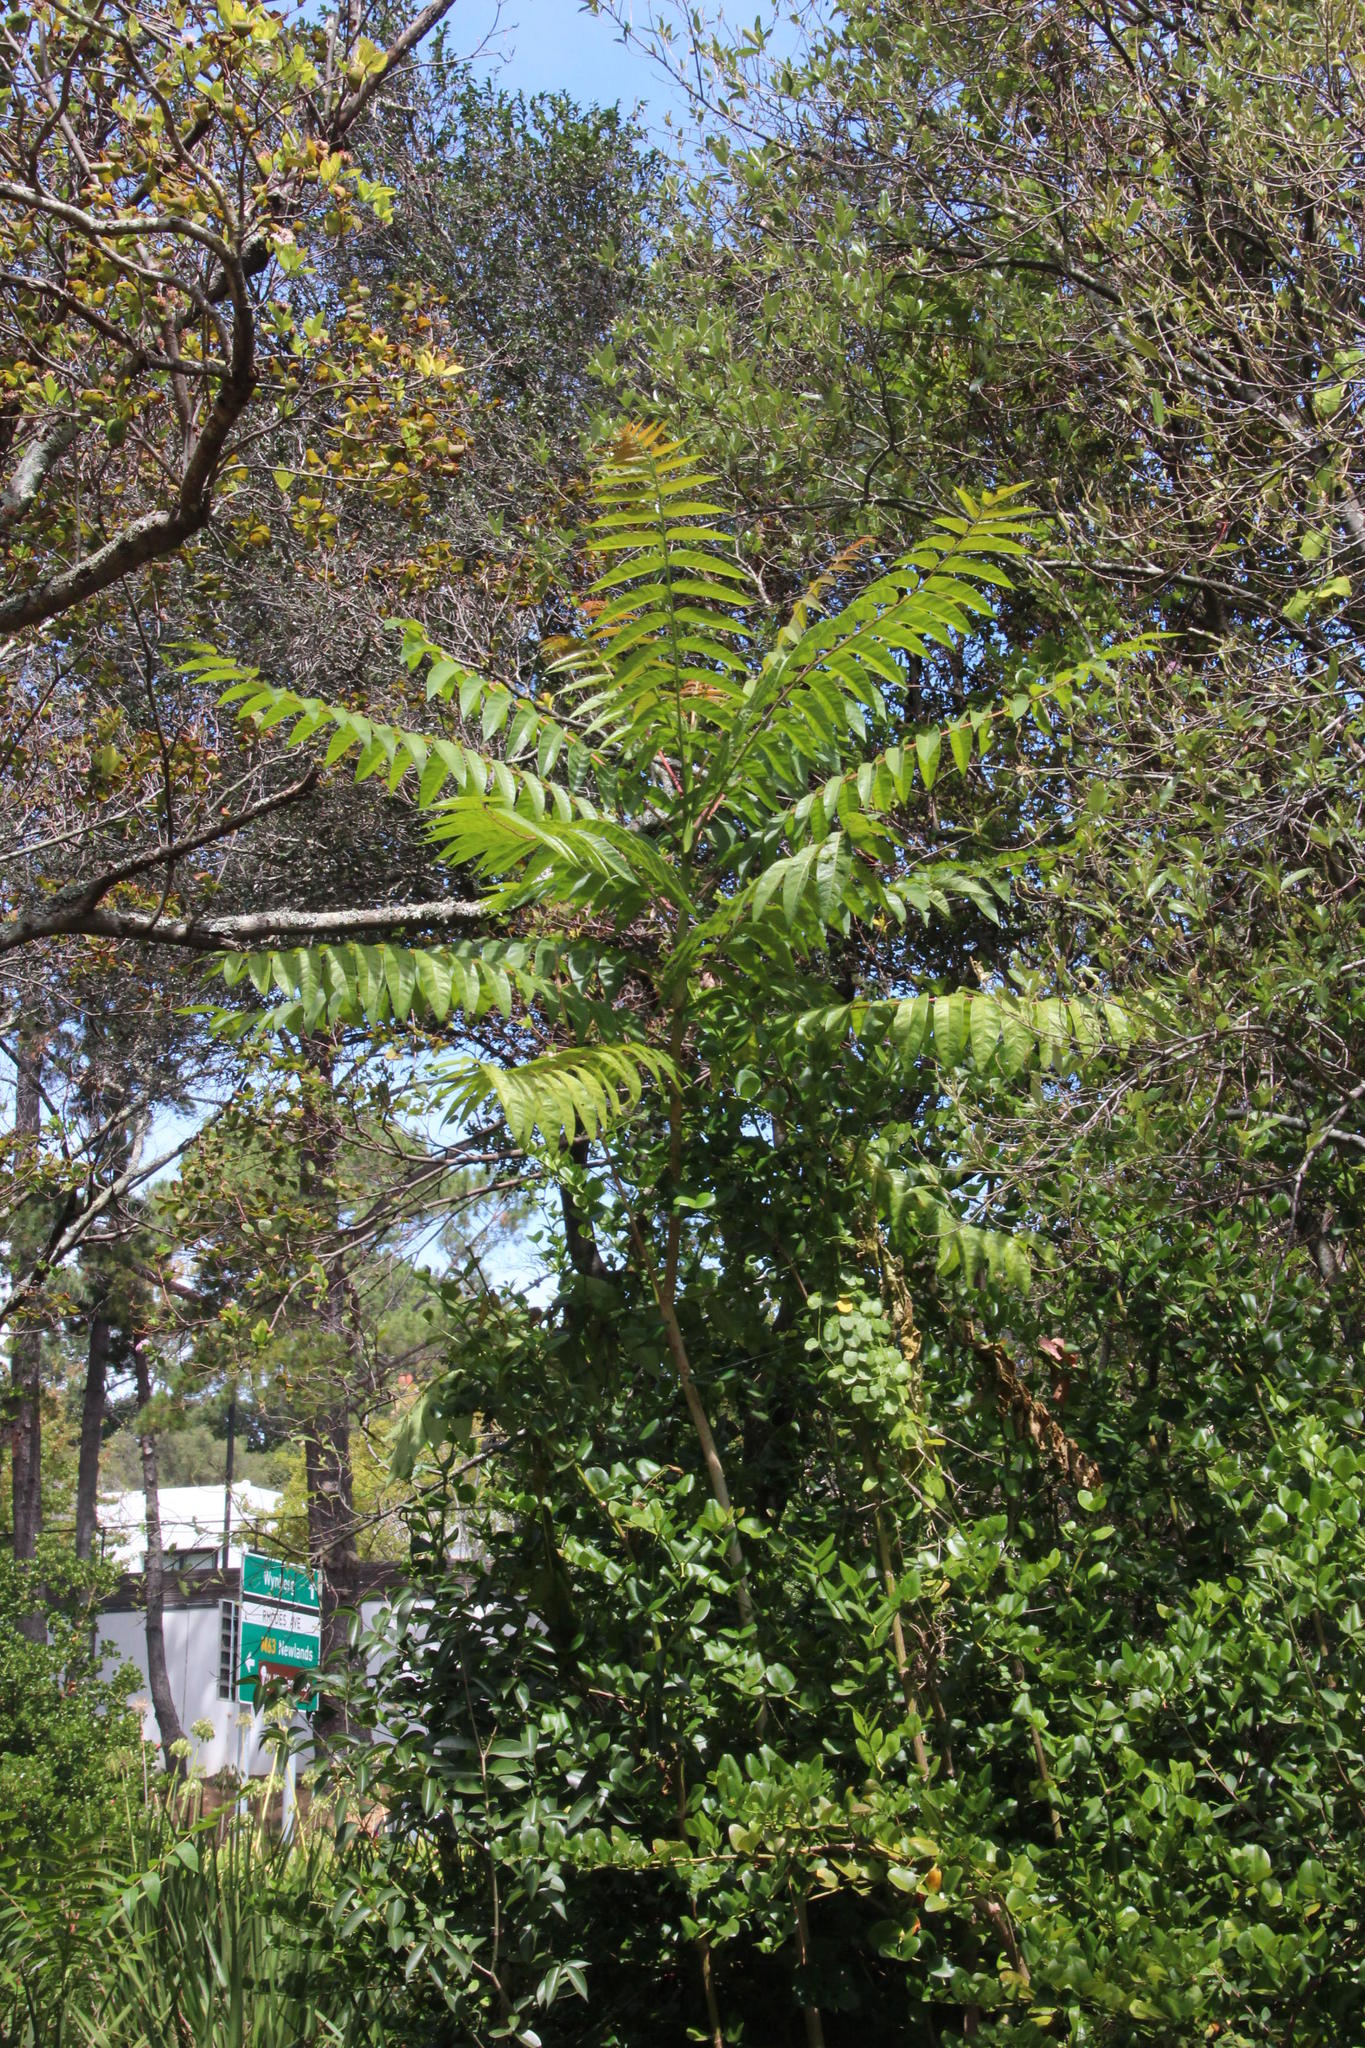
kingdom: Plantae
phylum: Tracheophyta
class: Magnoliopsida
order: Sapindales
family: Simaroubaceae
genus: Ailanthus
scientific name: Ailanthus altissima
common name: Tree-of-heaven
